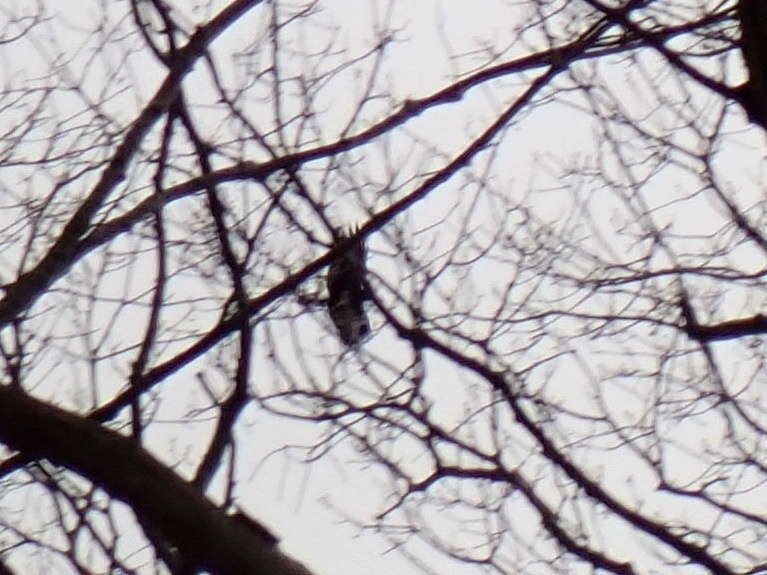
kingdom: Animalia
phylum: Chordata
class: Aves
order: Passeriformes
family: Corvidae
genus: Corvus
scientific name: Corvus
